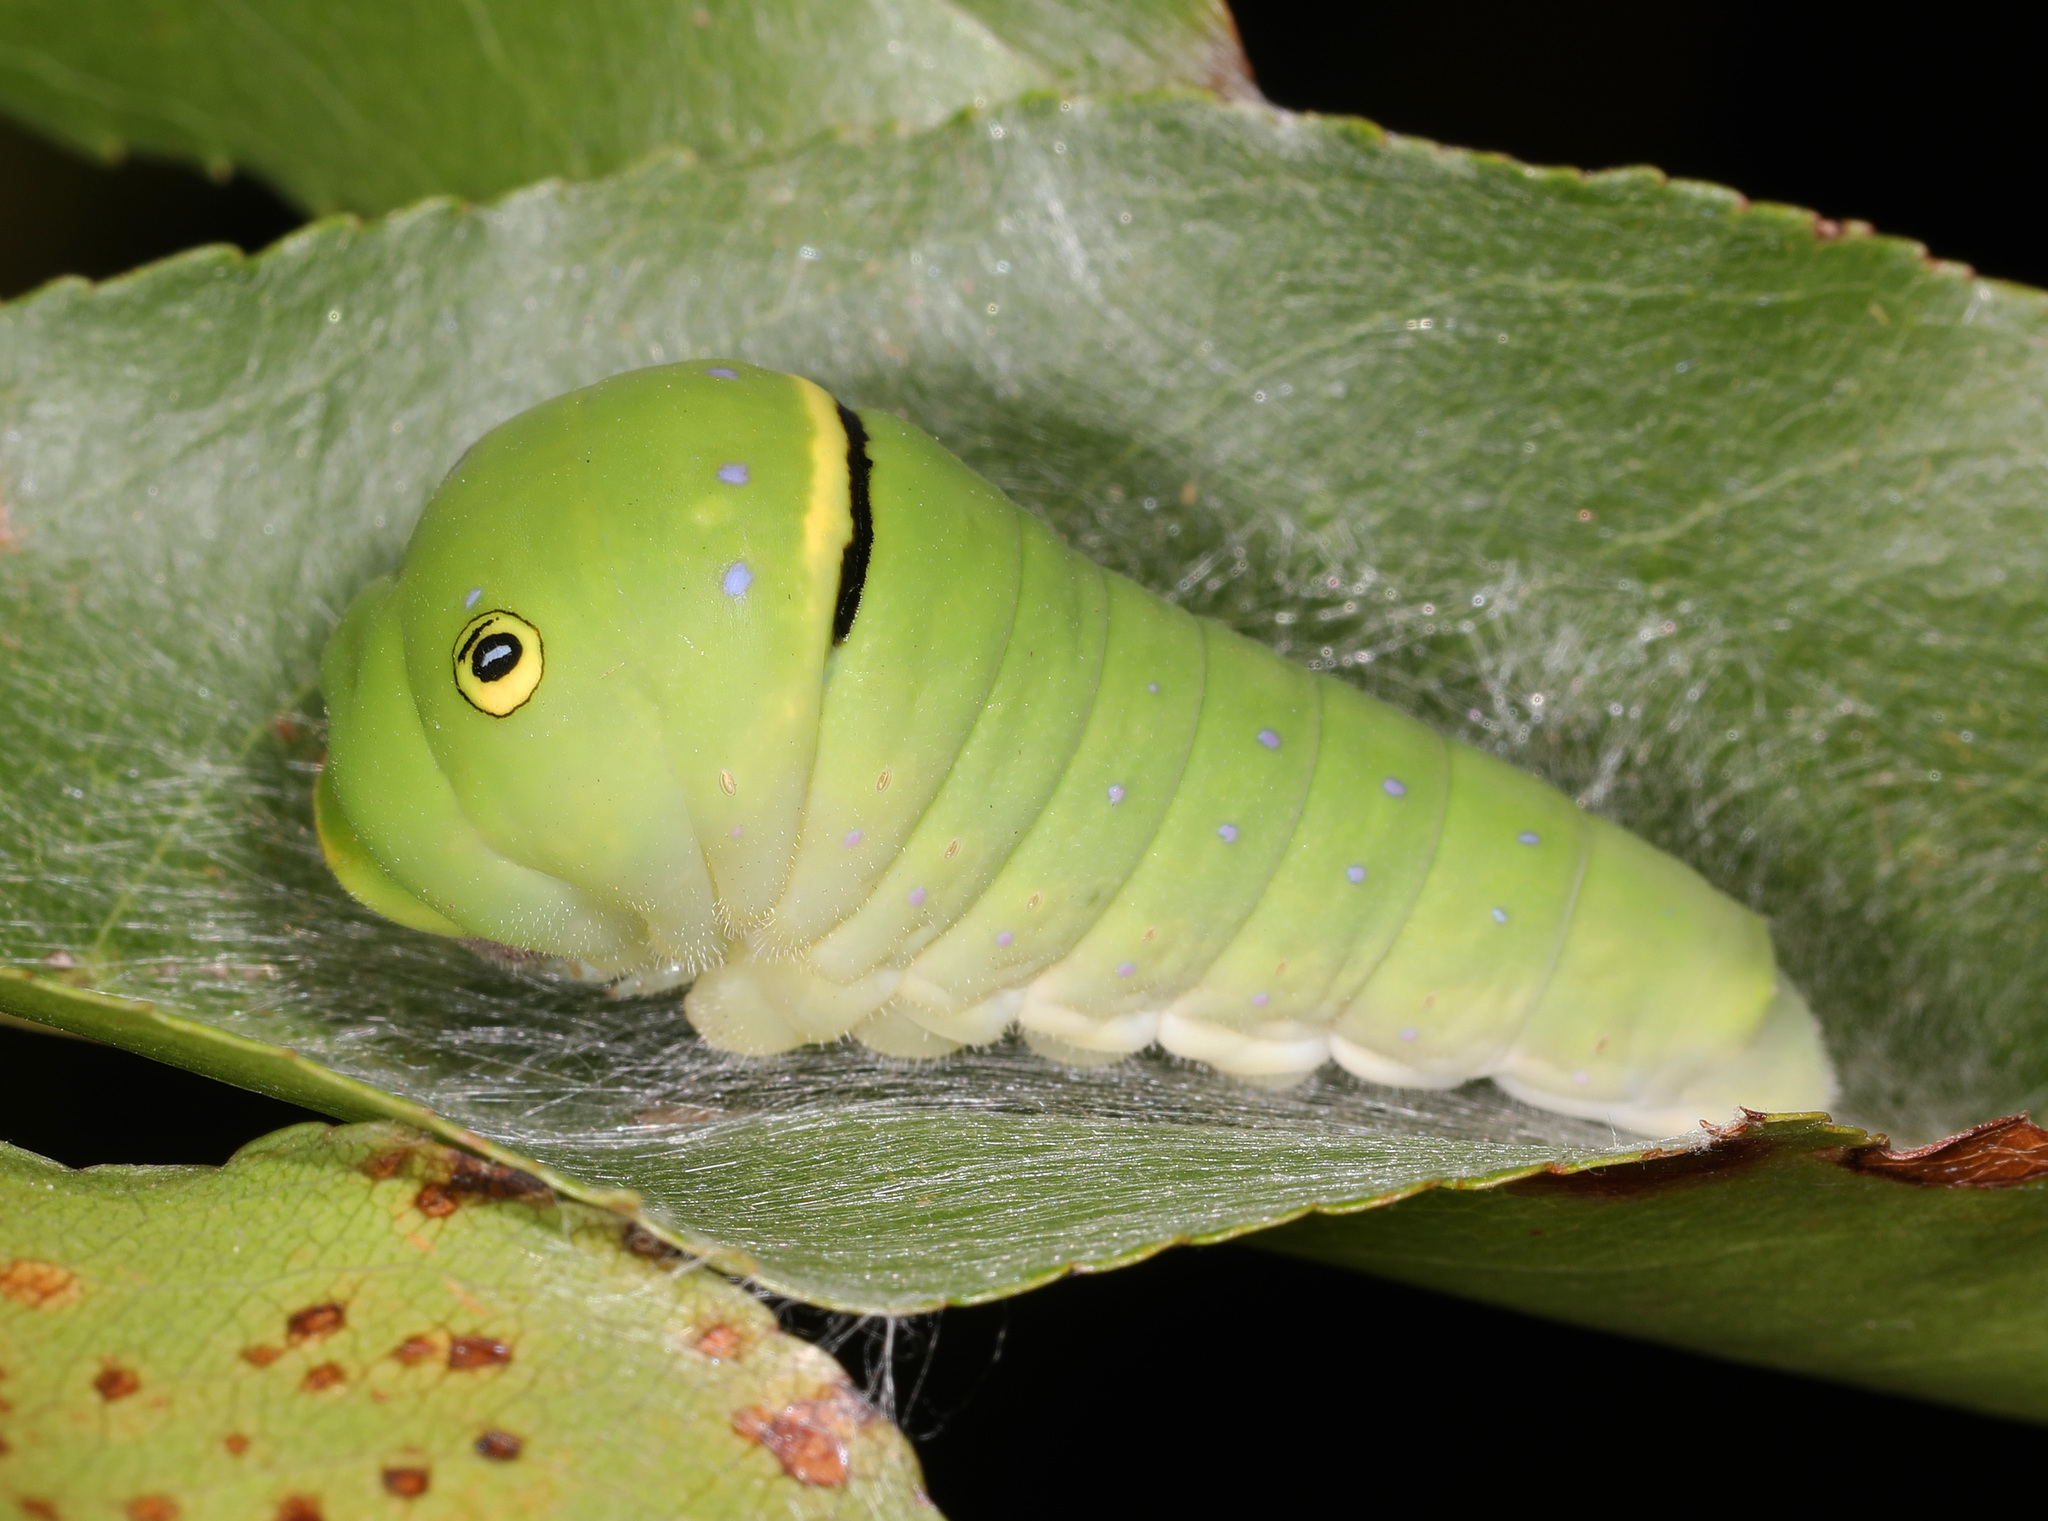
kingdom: Animalia
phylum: Arthropoda
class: Insecta
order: Lepidoptera
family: Papilionidae
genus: Papilio
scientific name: Papilio glaucus
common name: Tiger swallowtail
